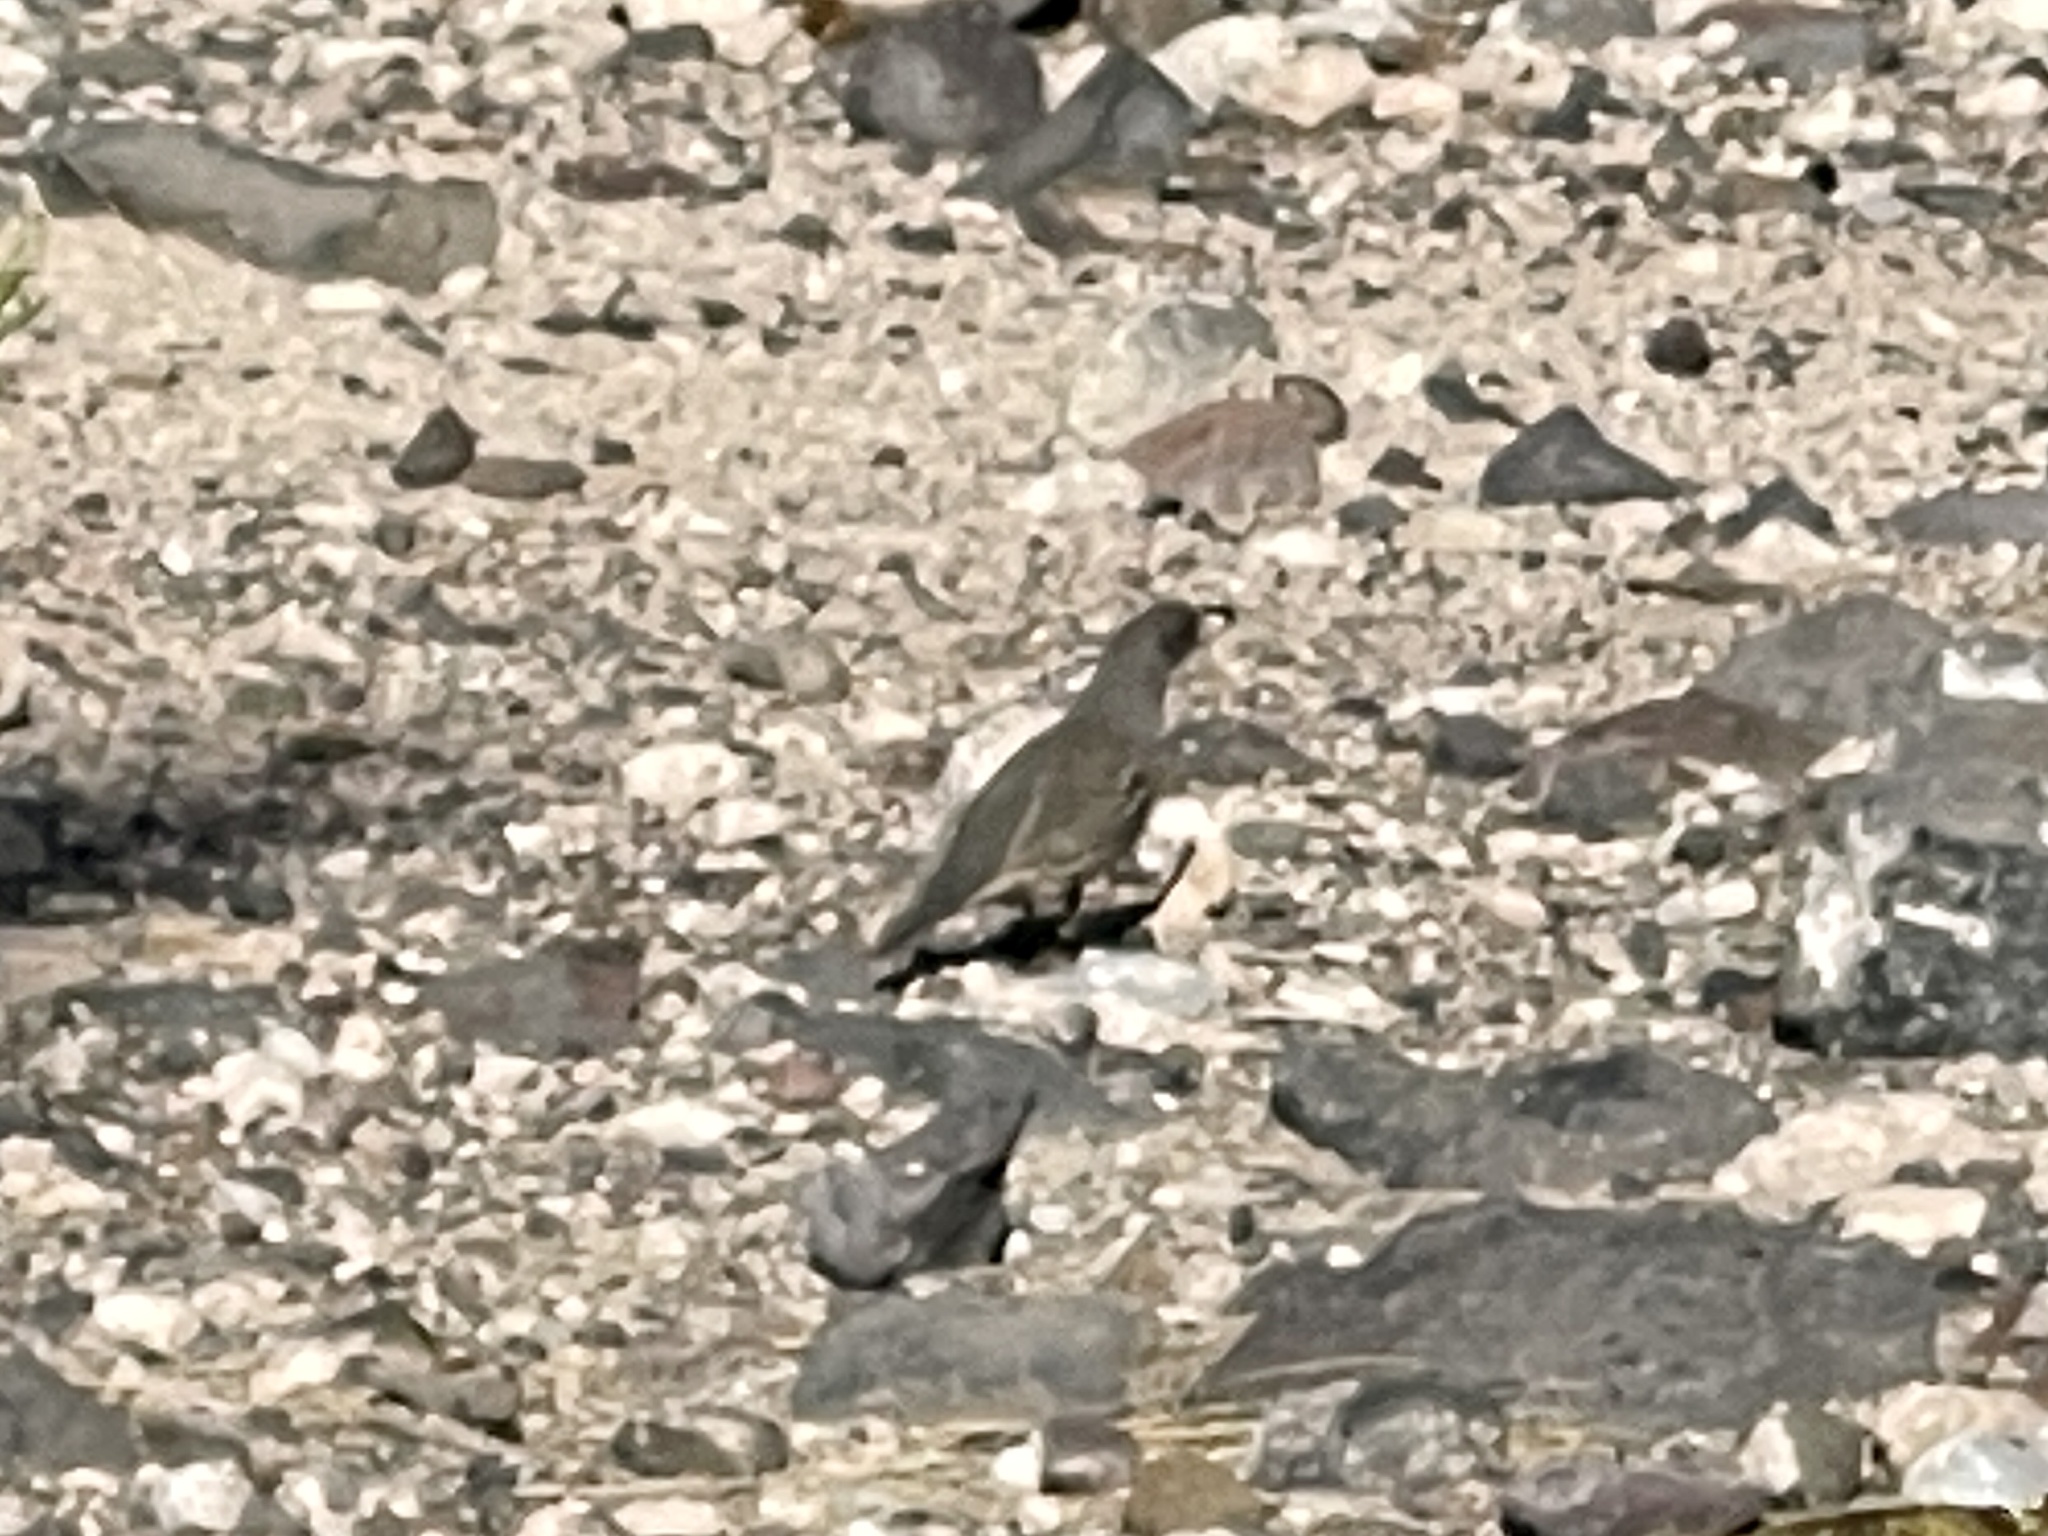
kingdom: Animalia
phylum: Chordata
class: Aves
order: Galliformes
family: Odontophoridae
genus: Callipepla
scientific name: Callipepla gambelii
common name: Gambel's quail
